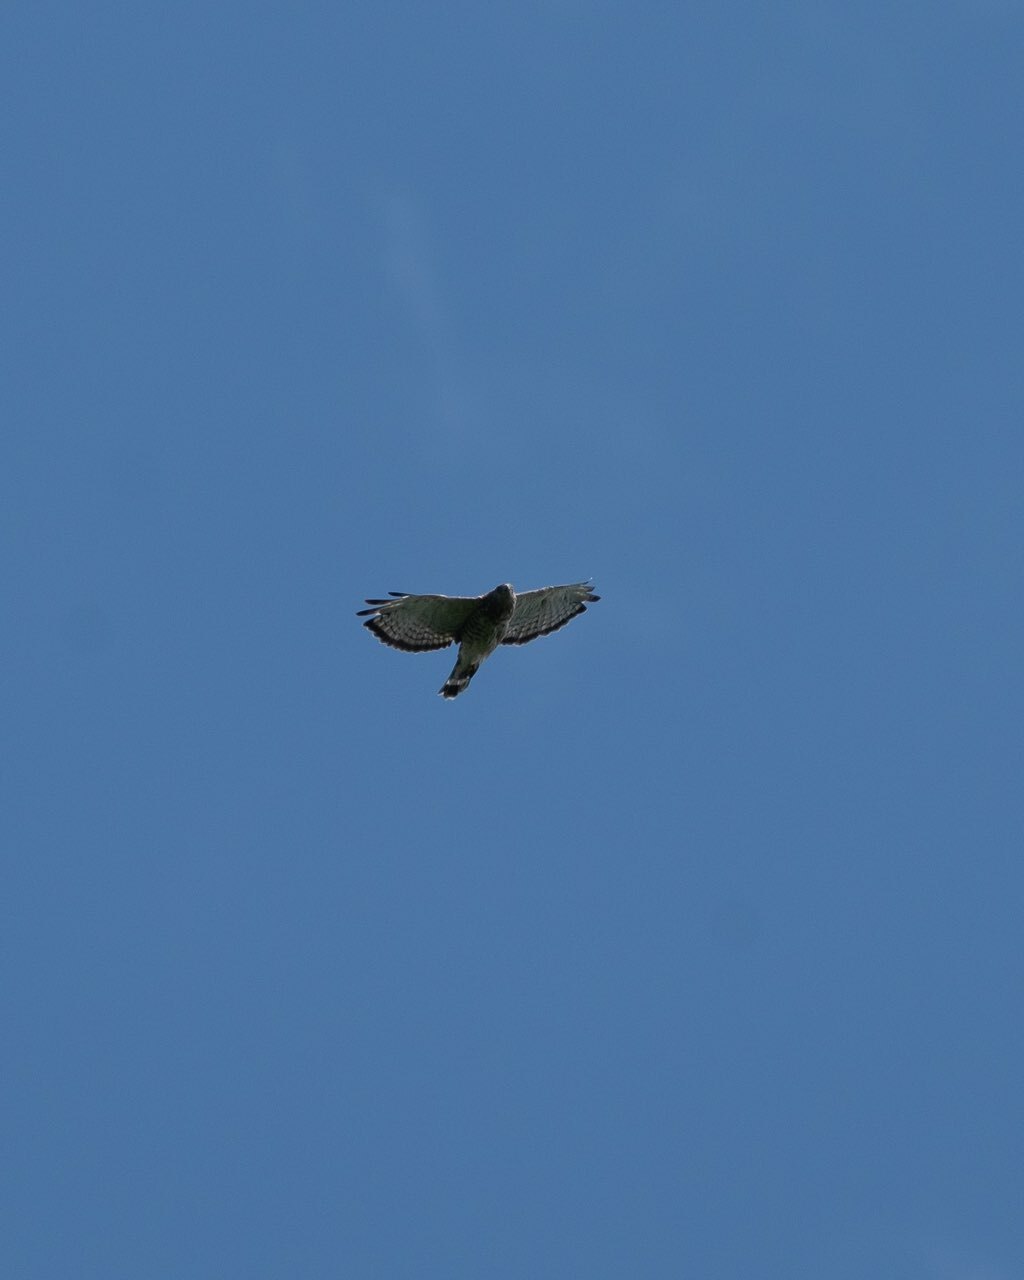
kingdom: Animalia
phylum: Chordata
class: Aves
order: Accipitriformes
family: Accipitridae
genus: Buteo
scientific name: Buteo platypterus
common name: Broad-winged hawk
